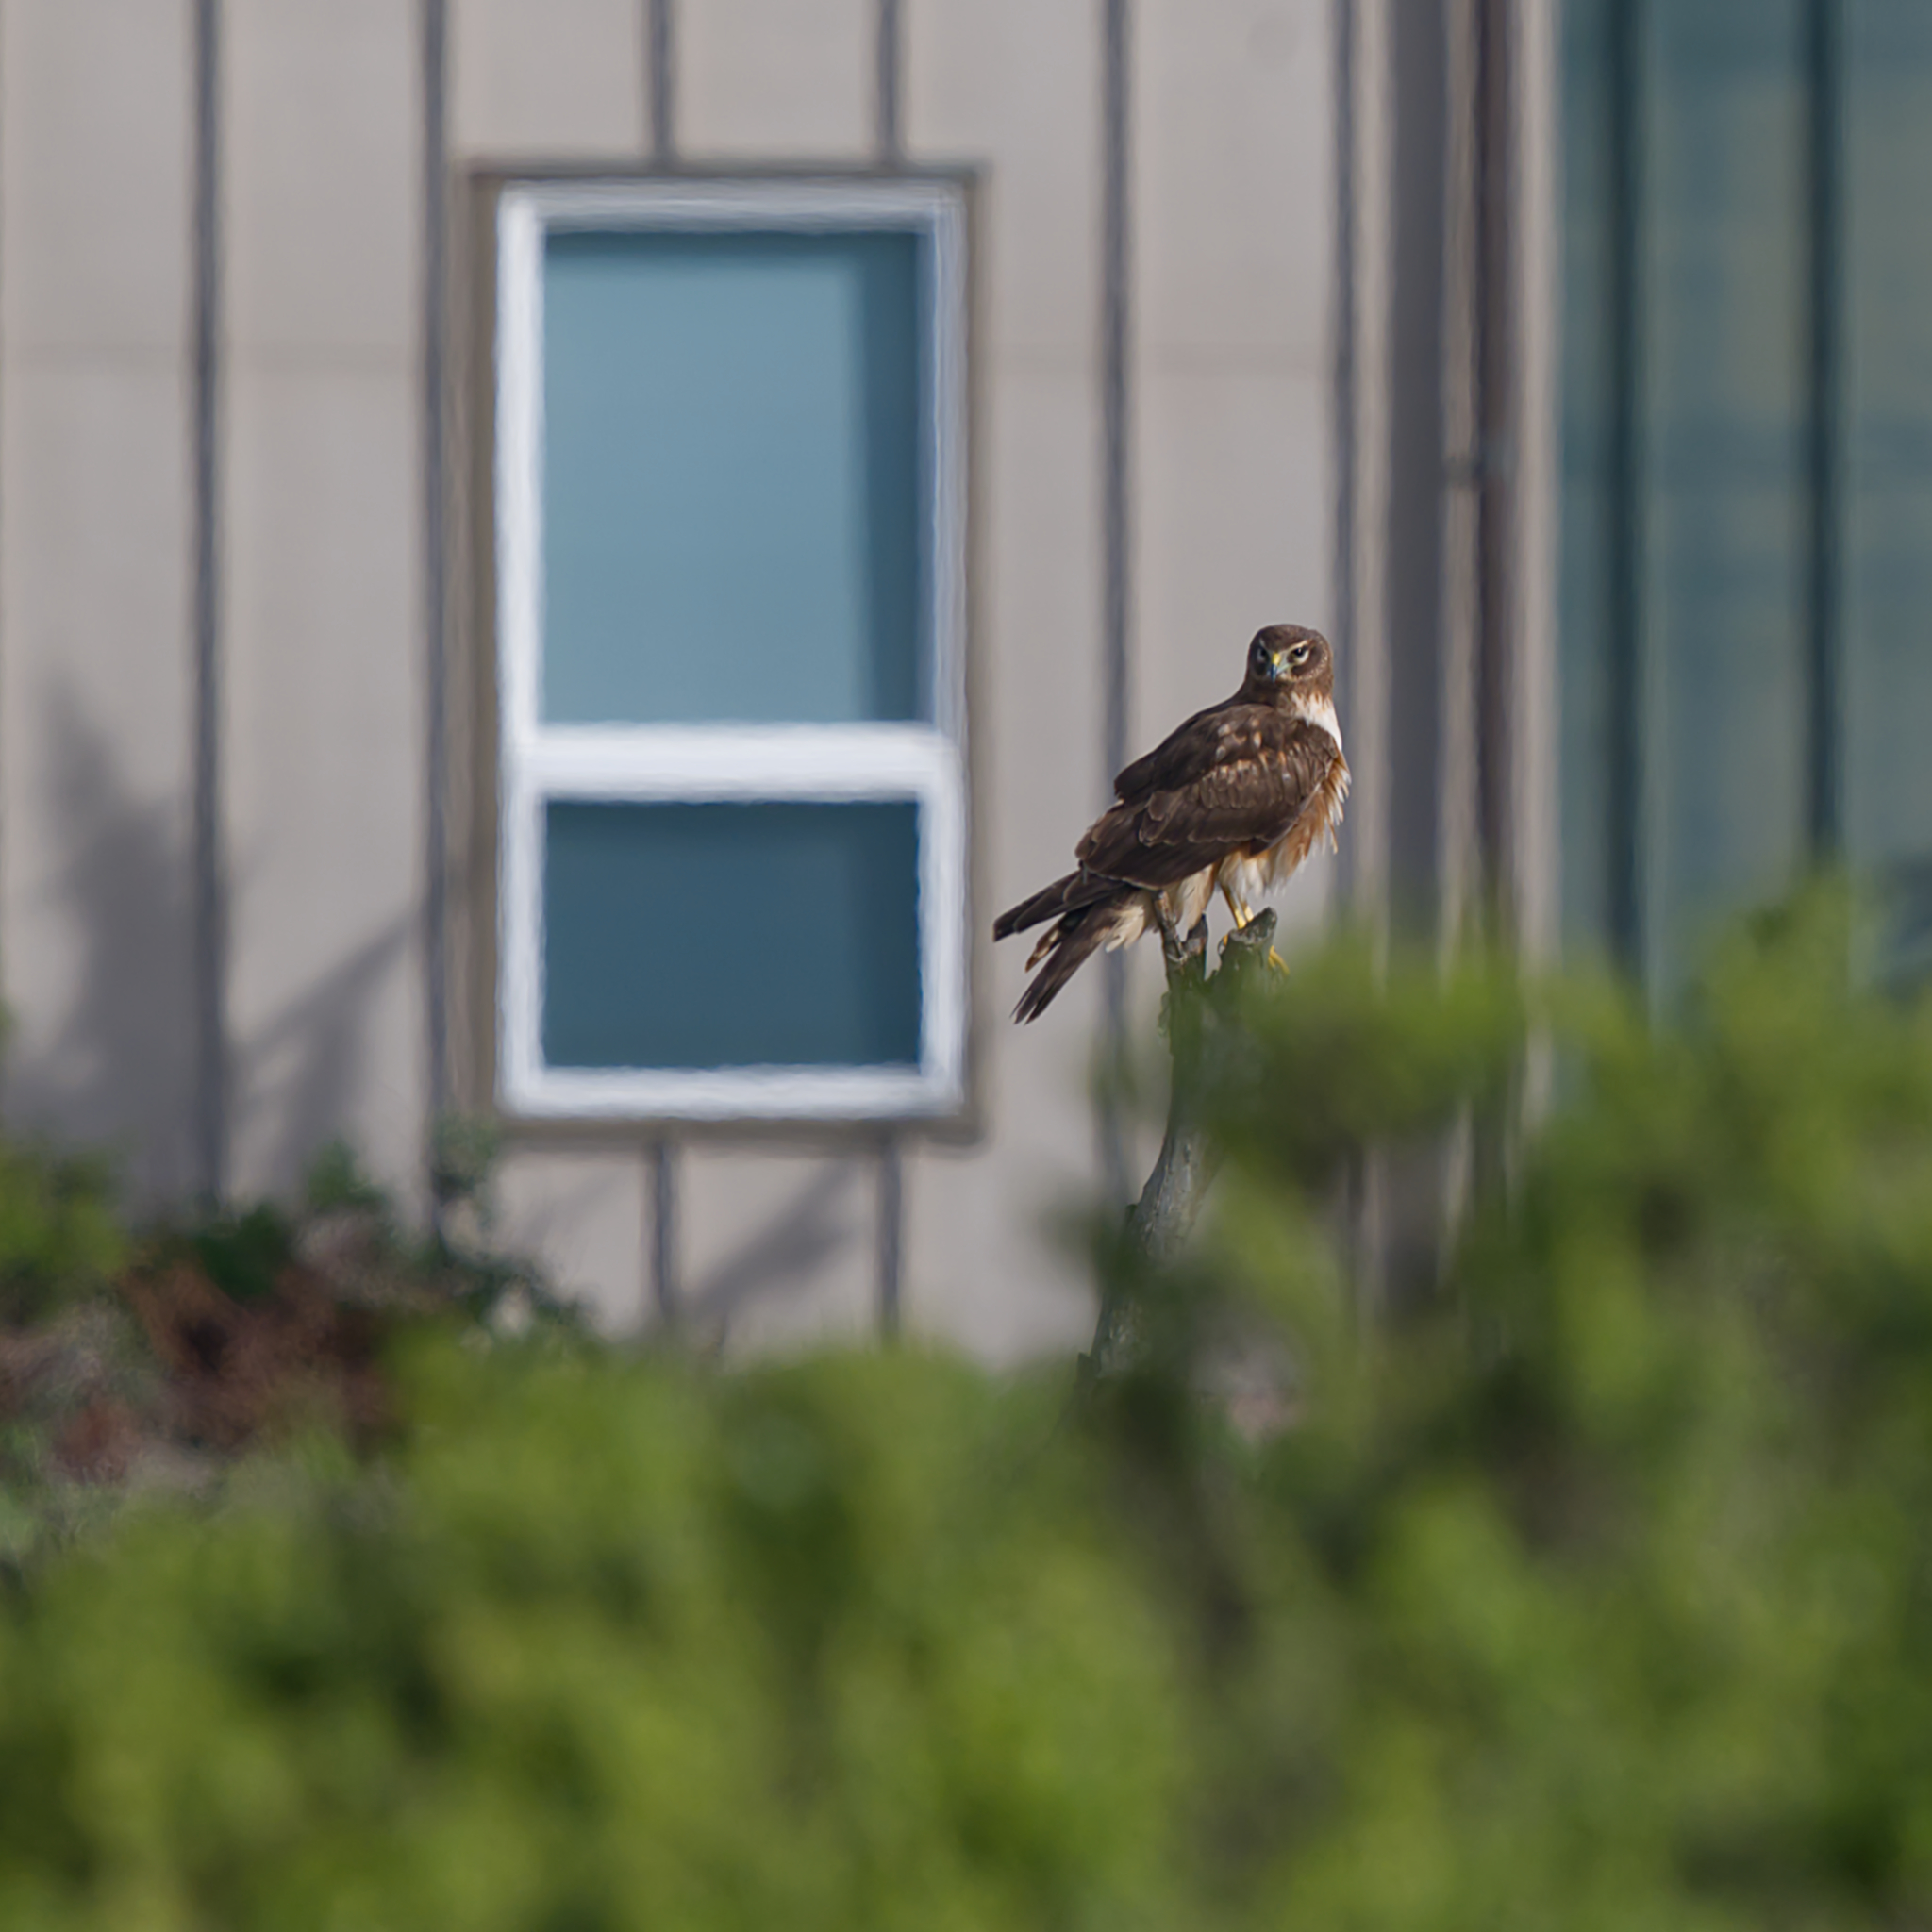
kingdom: Animalia
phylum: Chordata
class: Aves
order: Accipitriformes
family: Accipitridae
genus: Circus
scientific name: Circus cyaneus
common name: Hen harrier
